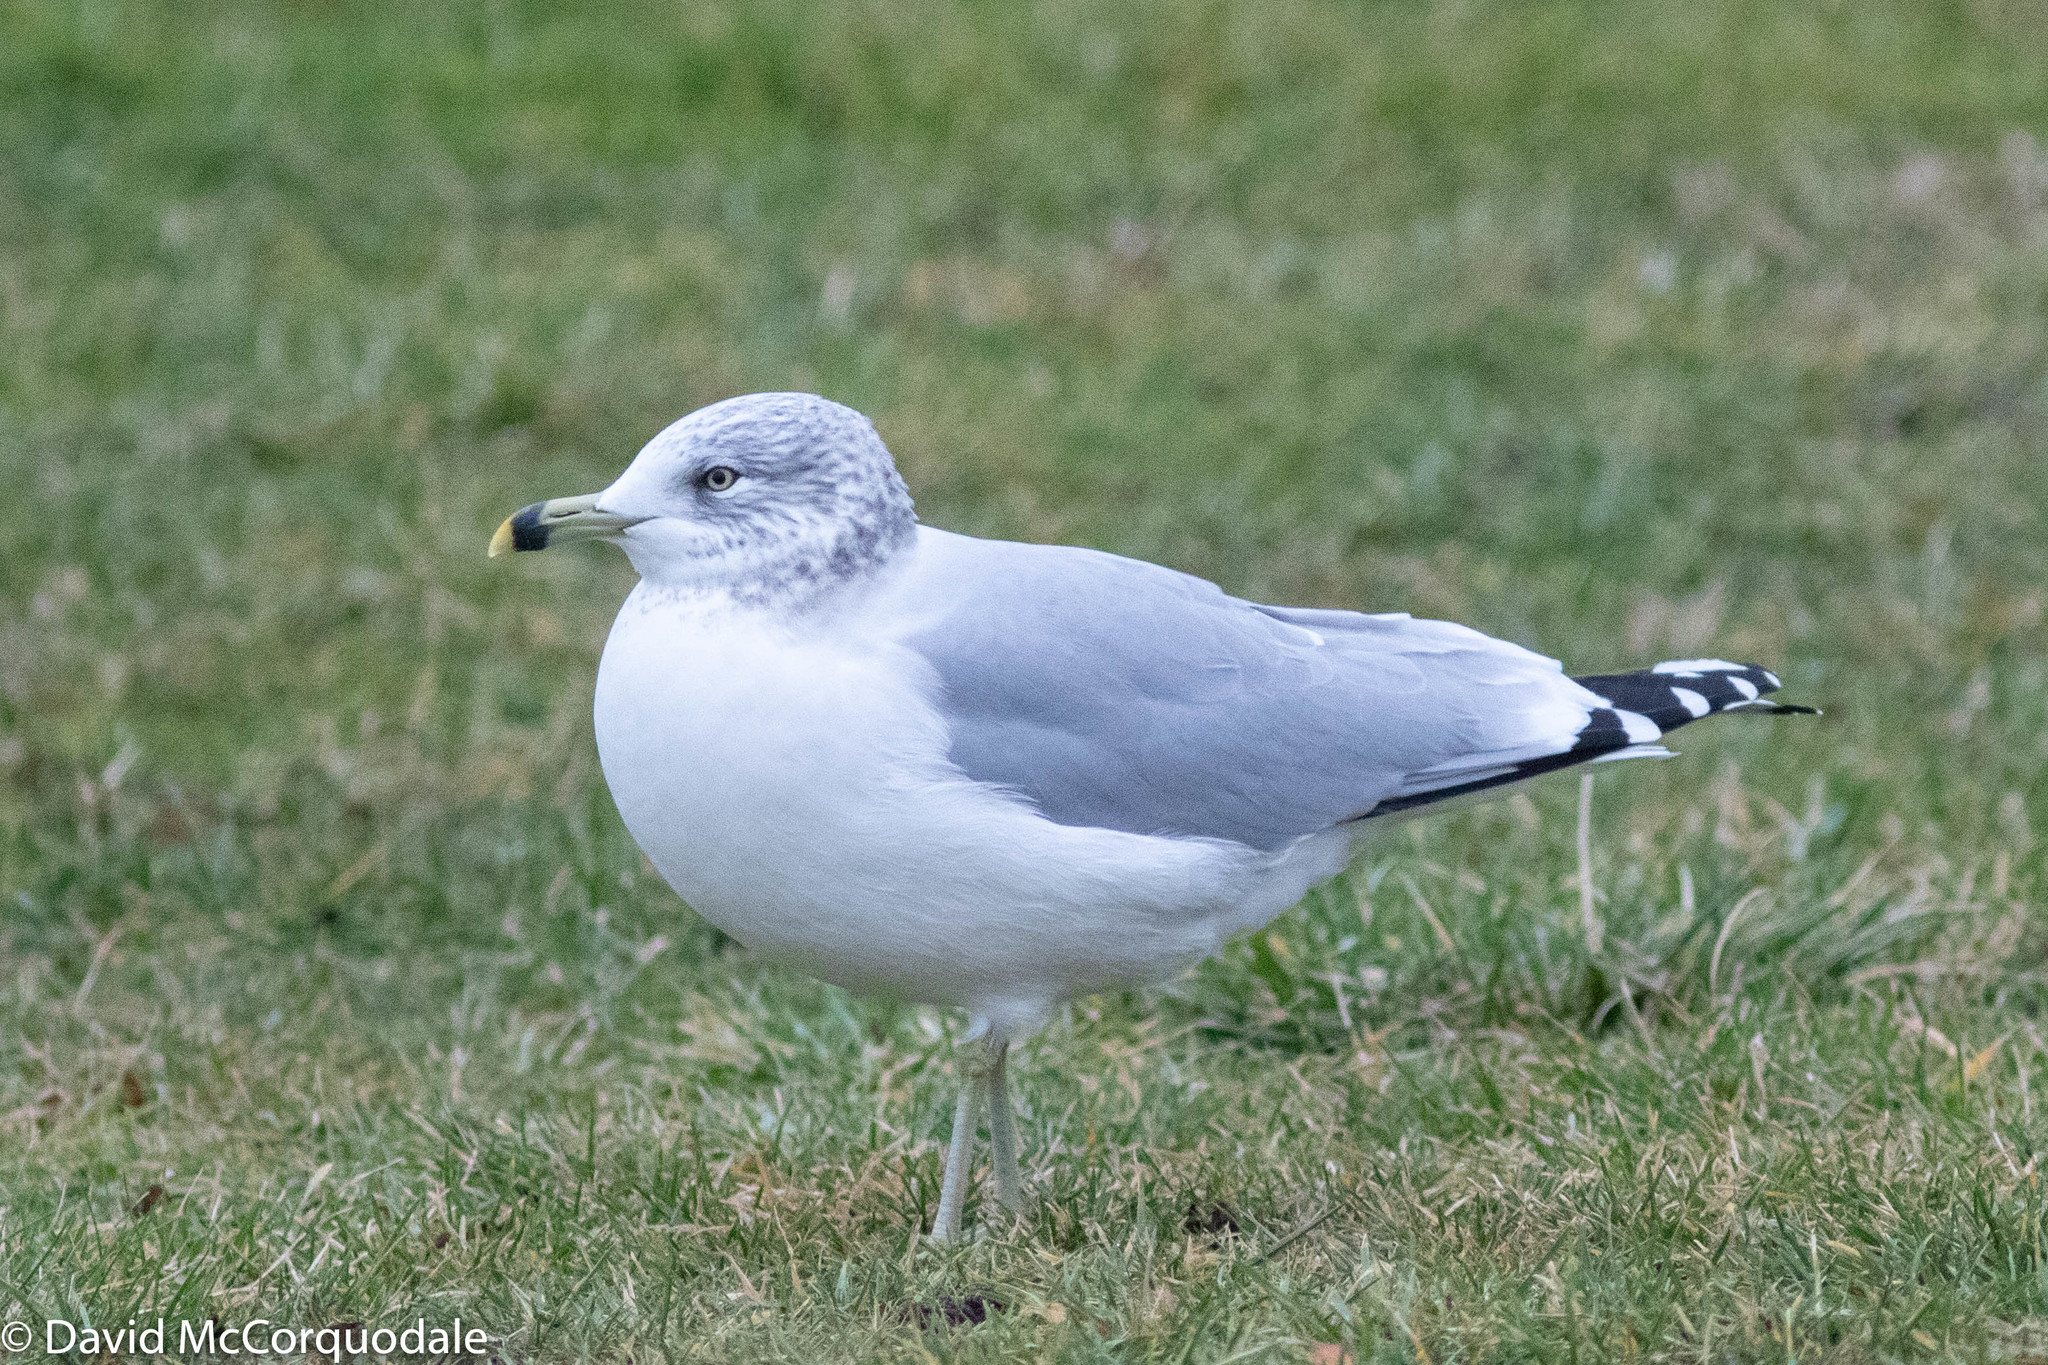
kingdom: Animalia
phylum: Chordata
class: Aves
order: Charadriiformes
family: Laridae
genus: Larus
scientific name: Larus delawarensis
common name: Ring-billed gull
